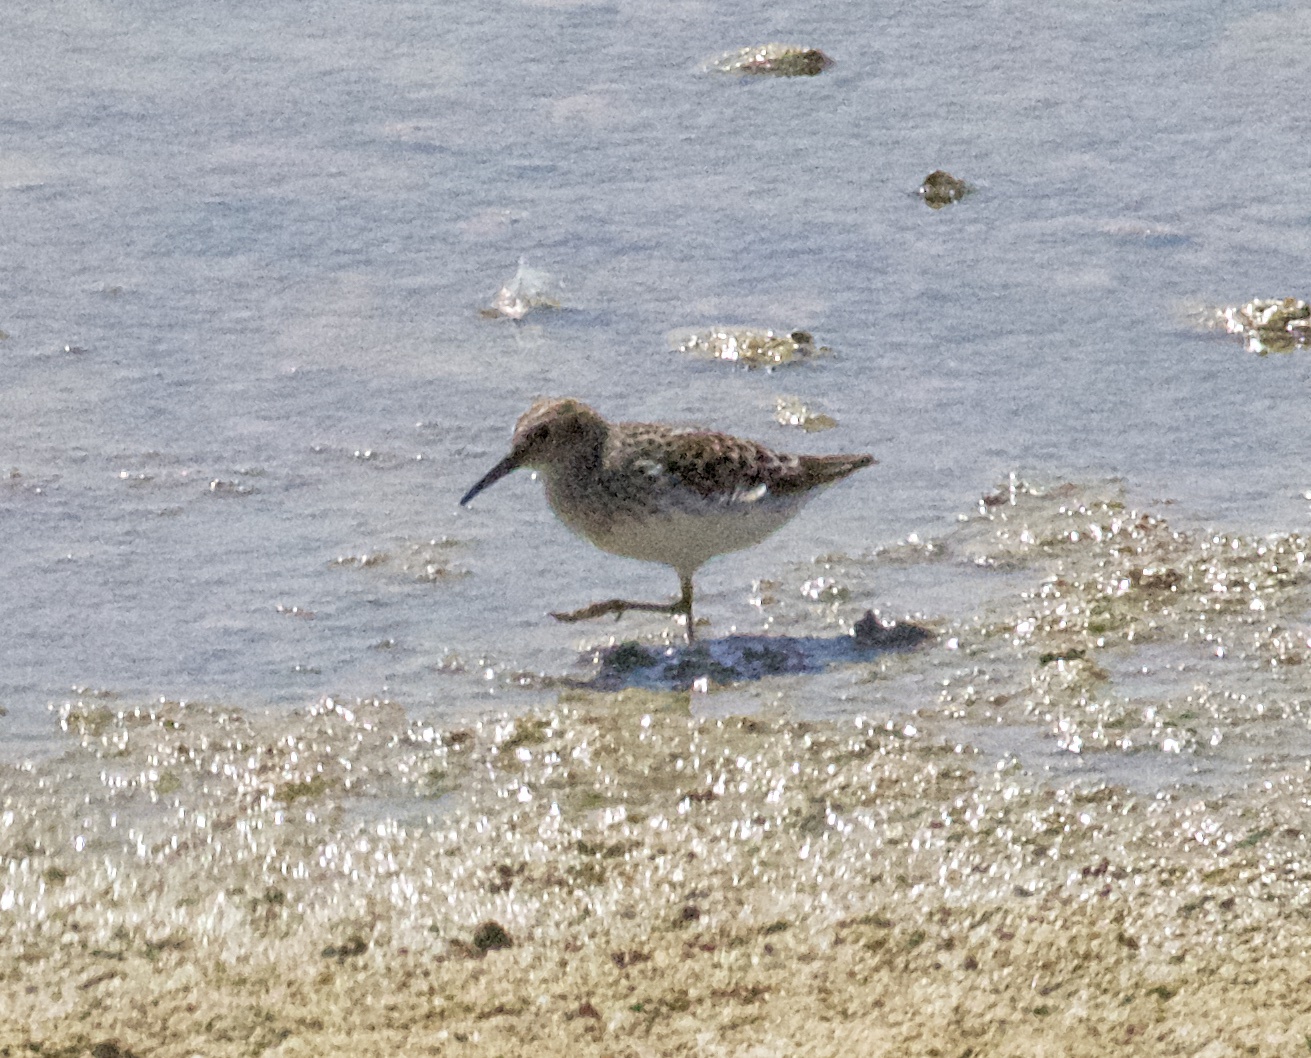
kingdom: Animalia
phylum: Chordata
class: Aves
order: Charadriiformes
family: Scolopacidae
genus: Calidris
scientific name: Calidris minutilla
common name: Least sandpiper
